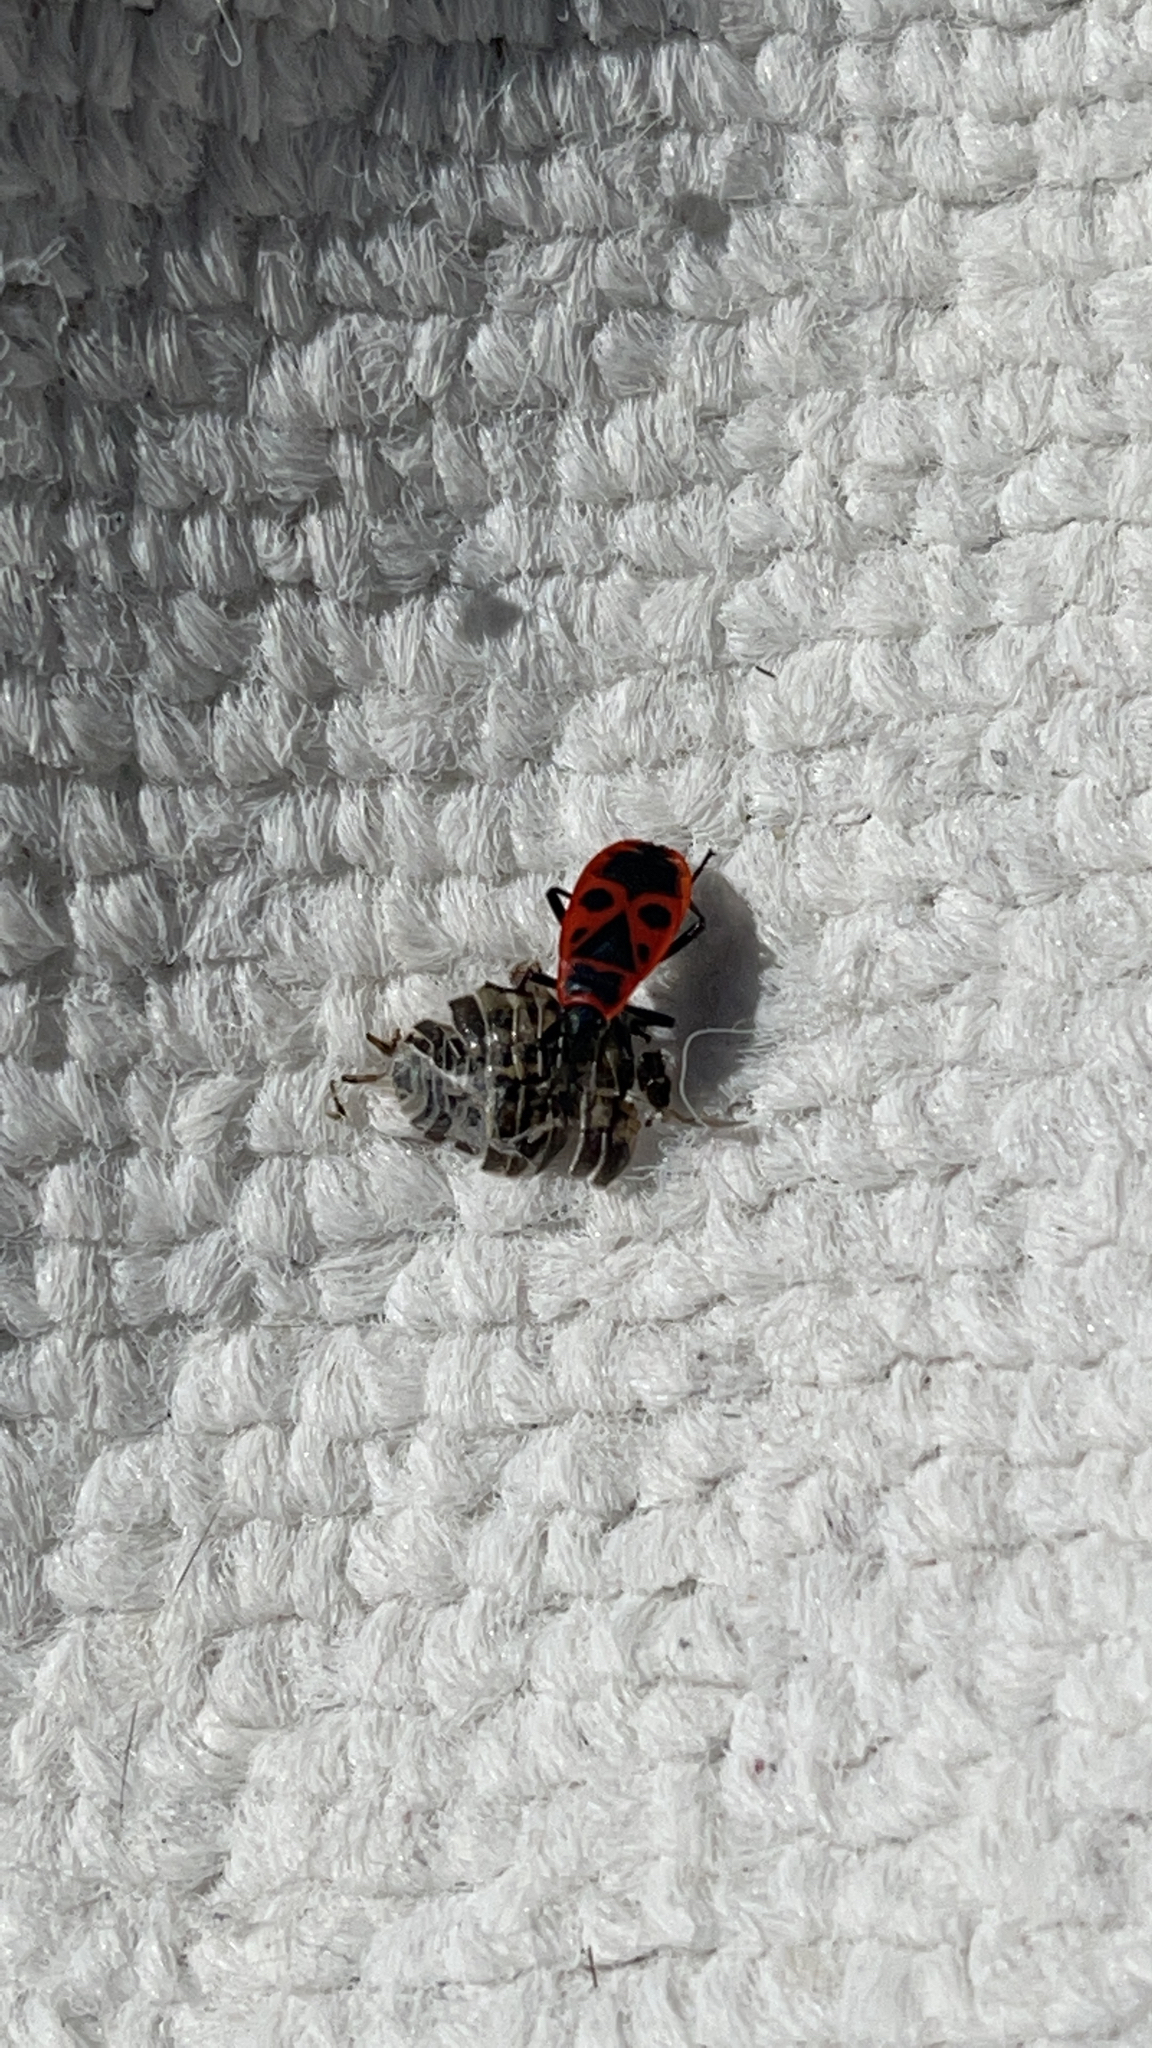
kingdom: Animalia
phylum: Arthropoda
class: Insecta
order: Hemiptera
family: Pyrrhocoridae
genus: Pyrrhocoris
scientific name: Pyrrhocoris apterus
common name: Firebug
